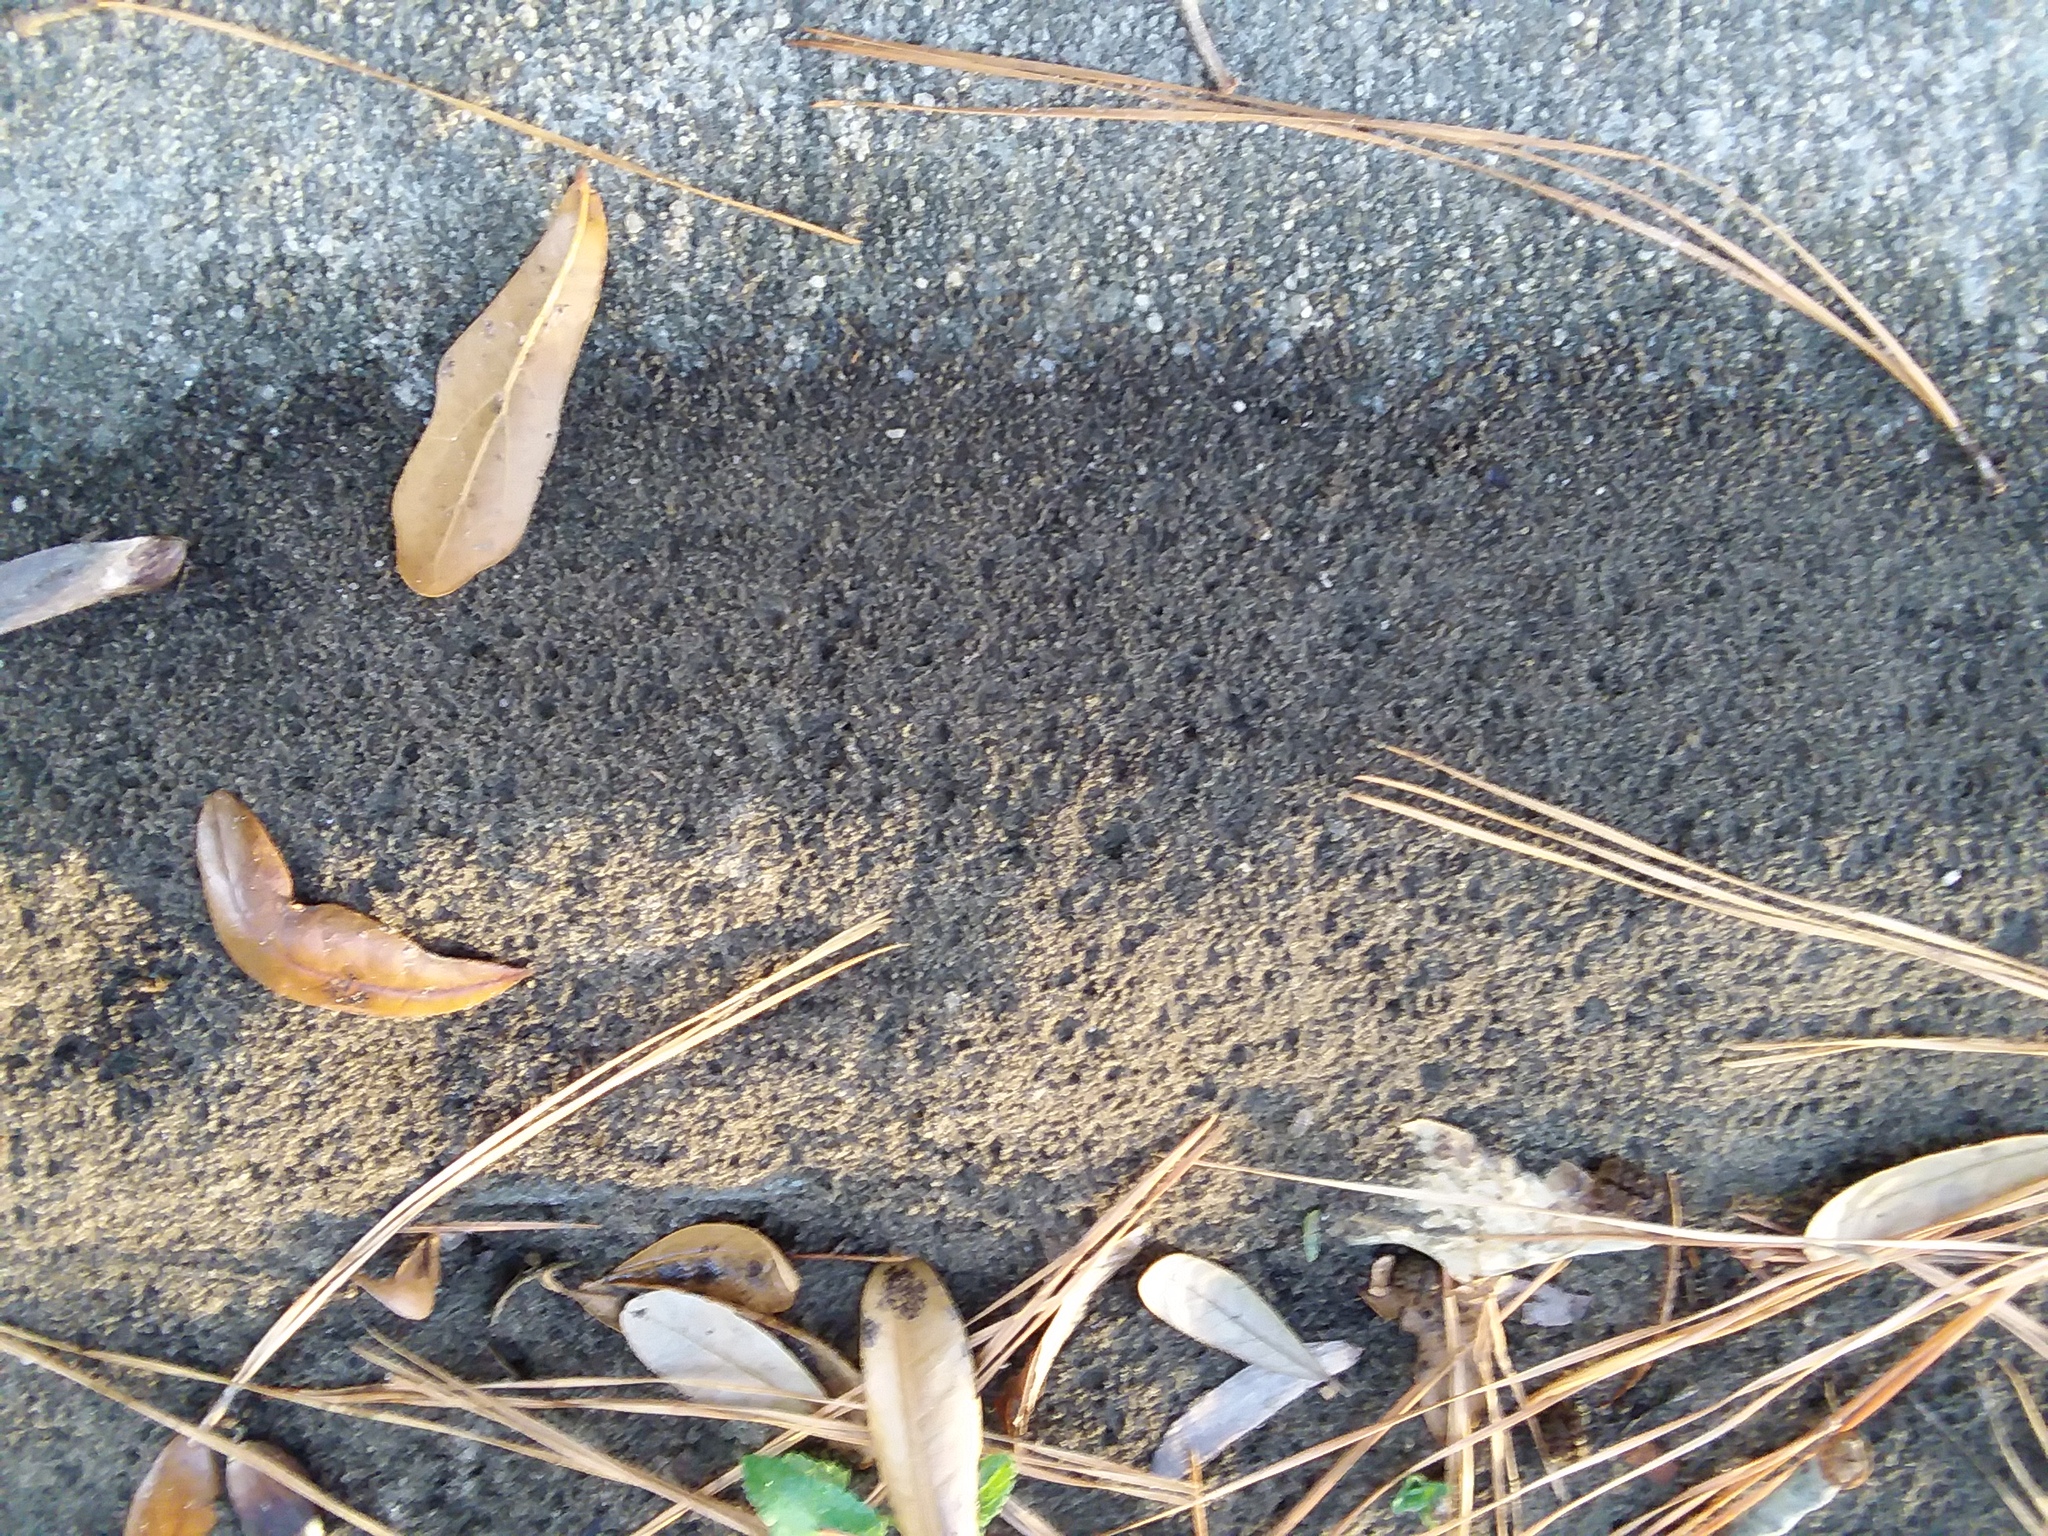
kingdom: Animalia
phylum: Arthropoda
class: Insecta
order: Hymenoptera
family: Formicidae
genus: Solenopsis
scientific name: Solenopsis invicta
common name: Red imported fire ant
